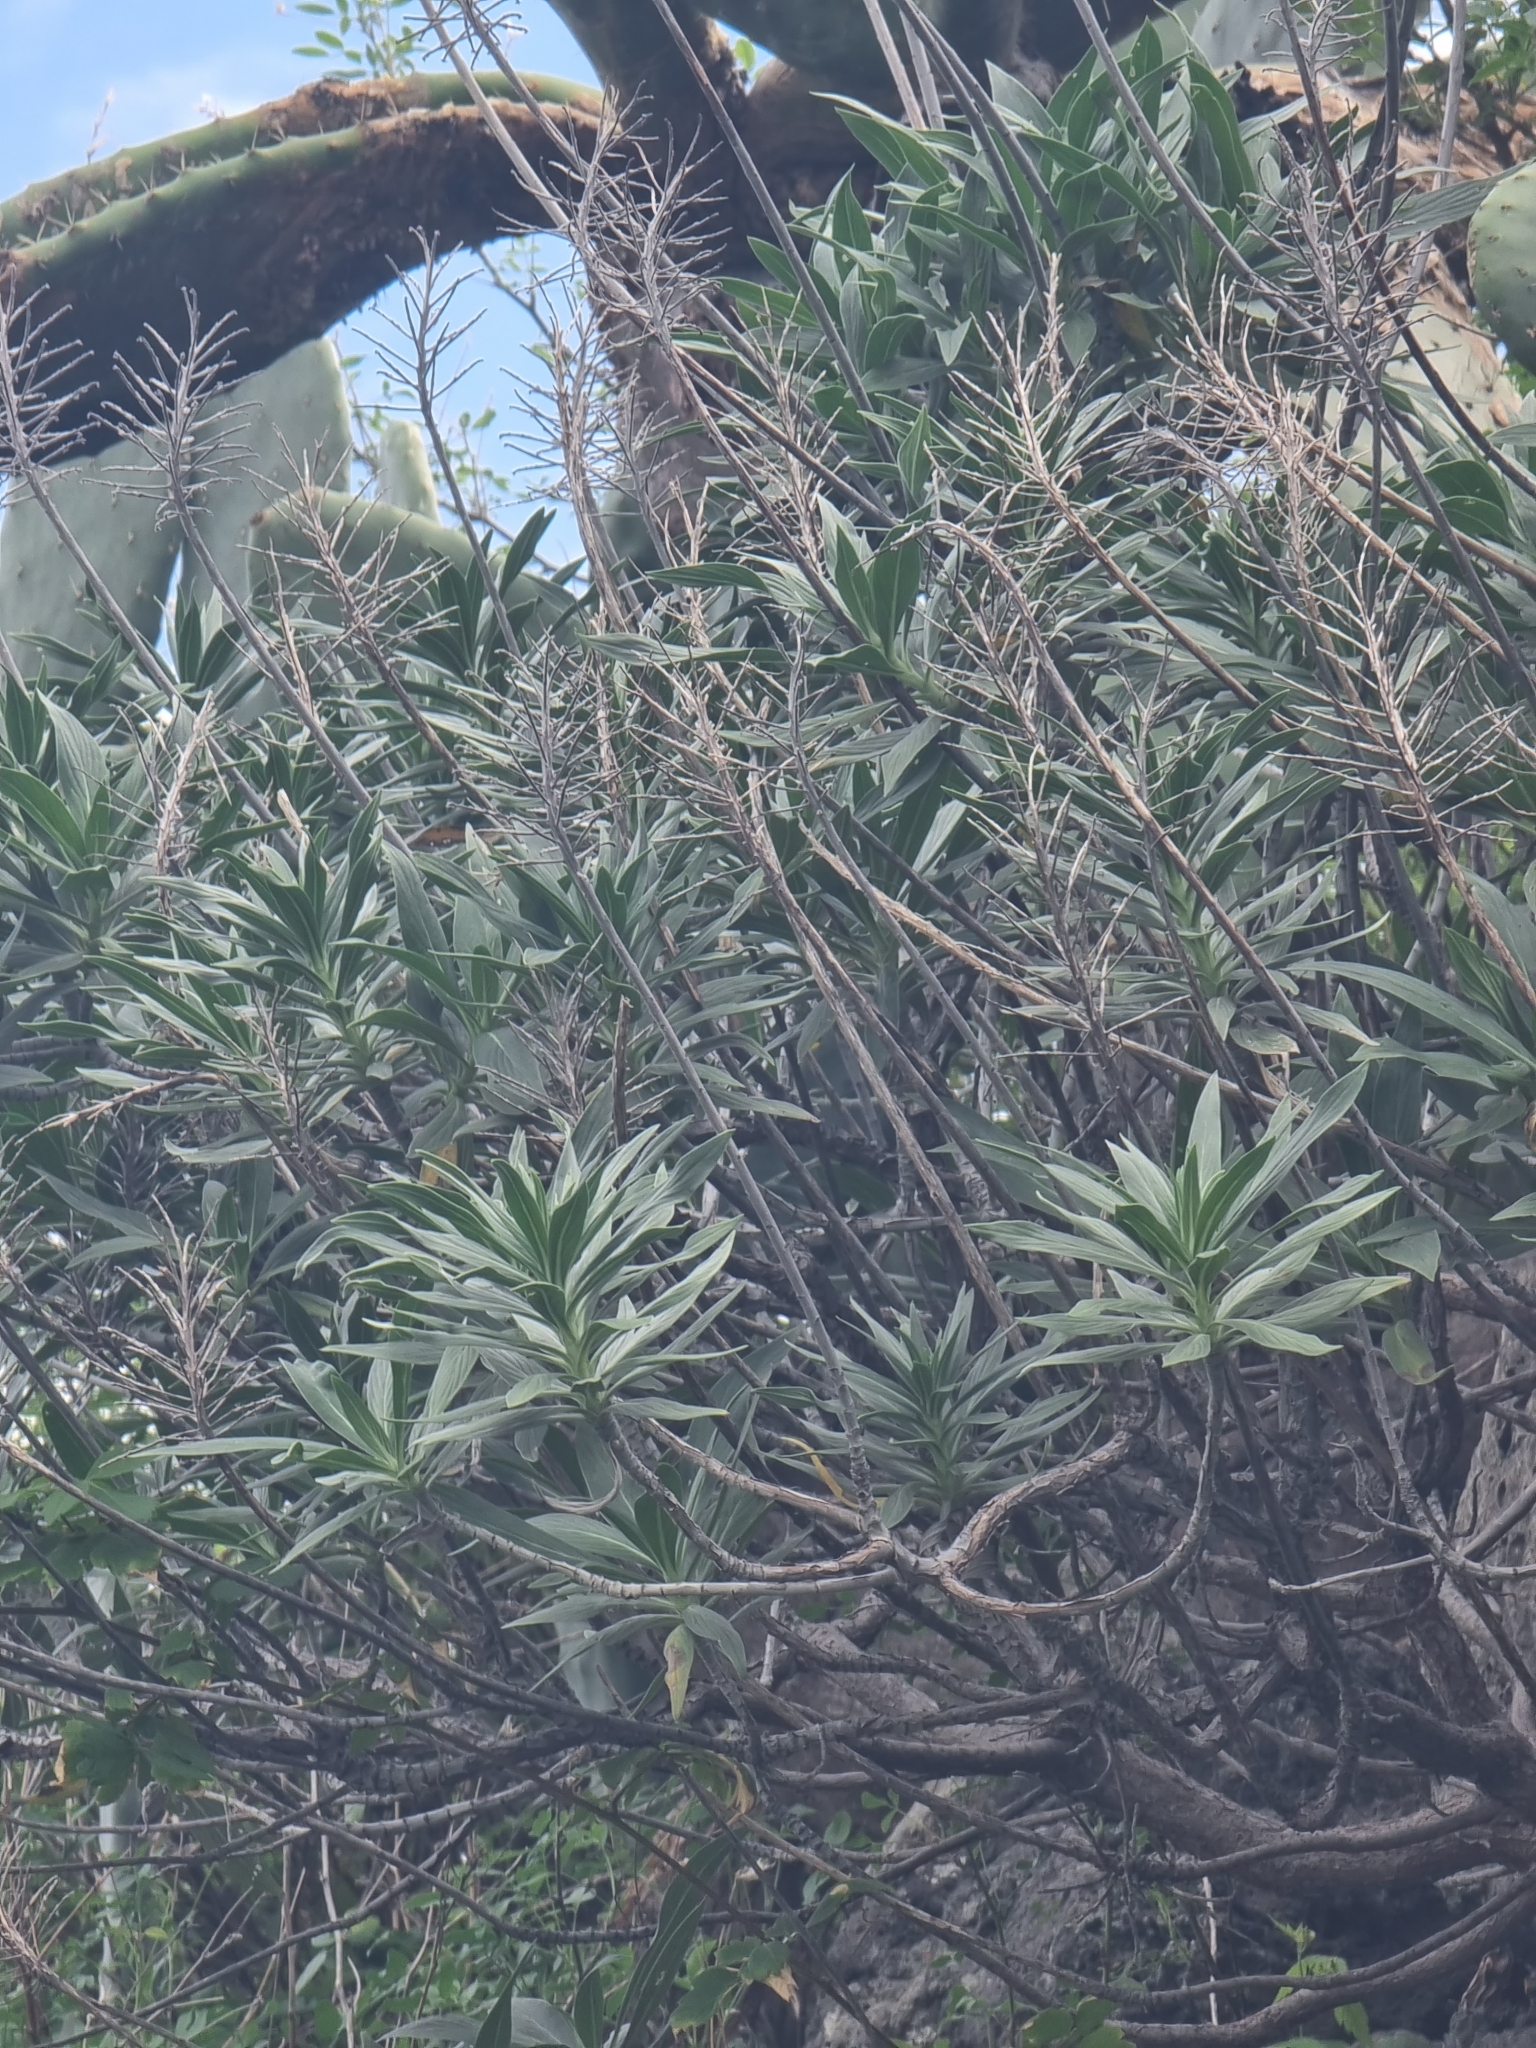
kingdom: Plantae
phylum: Tracheophyta
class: Magnoliopsida
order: Boraginales
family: Boraginaceae
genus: Echium
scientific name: Echium nervosum
